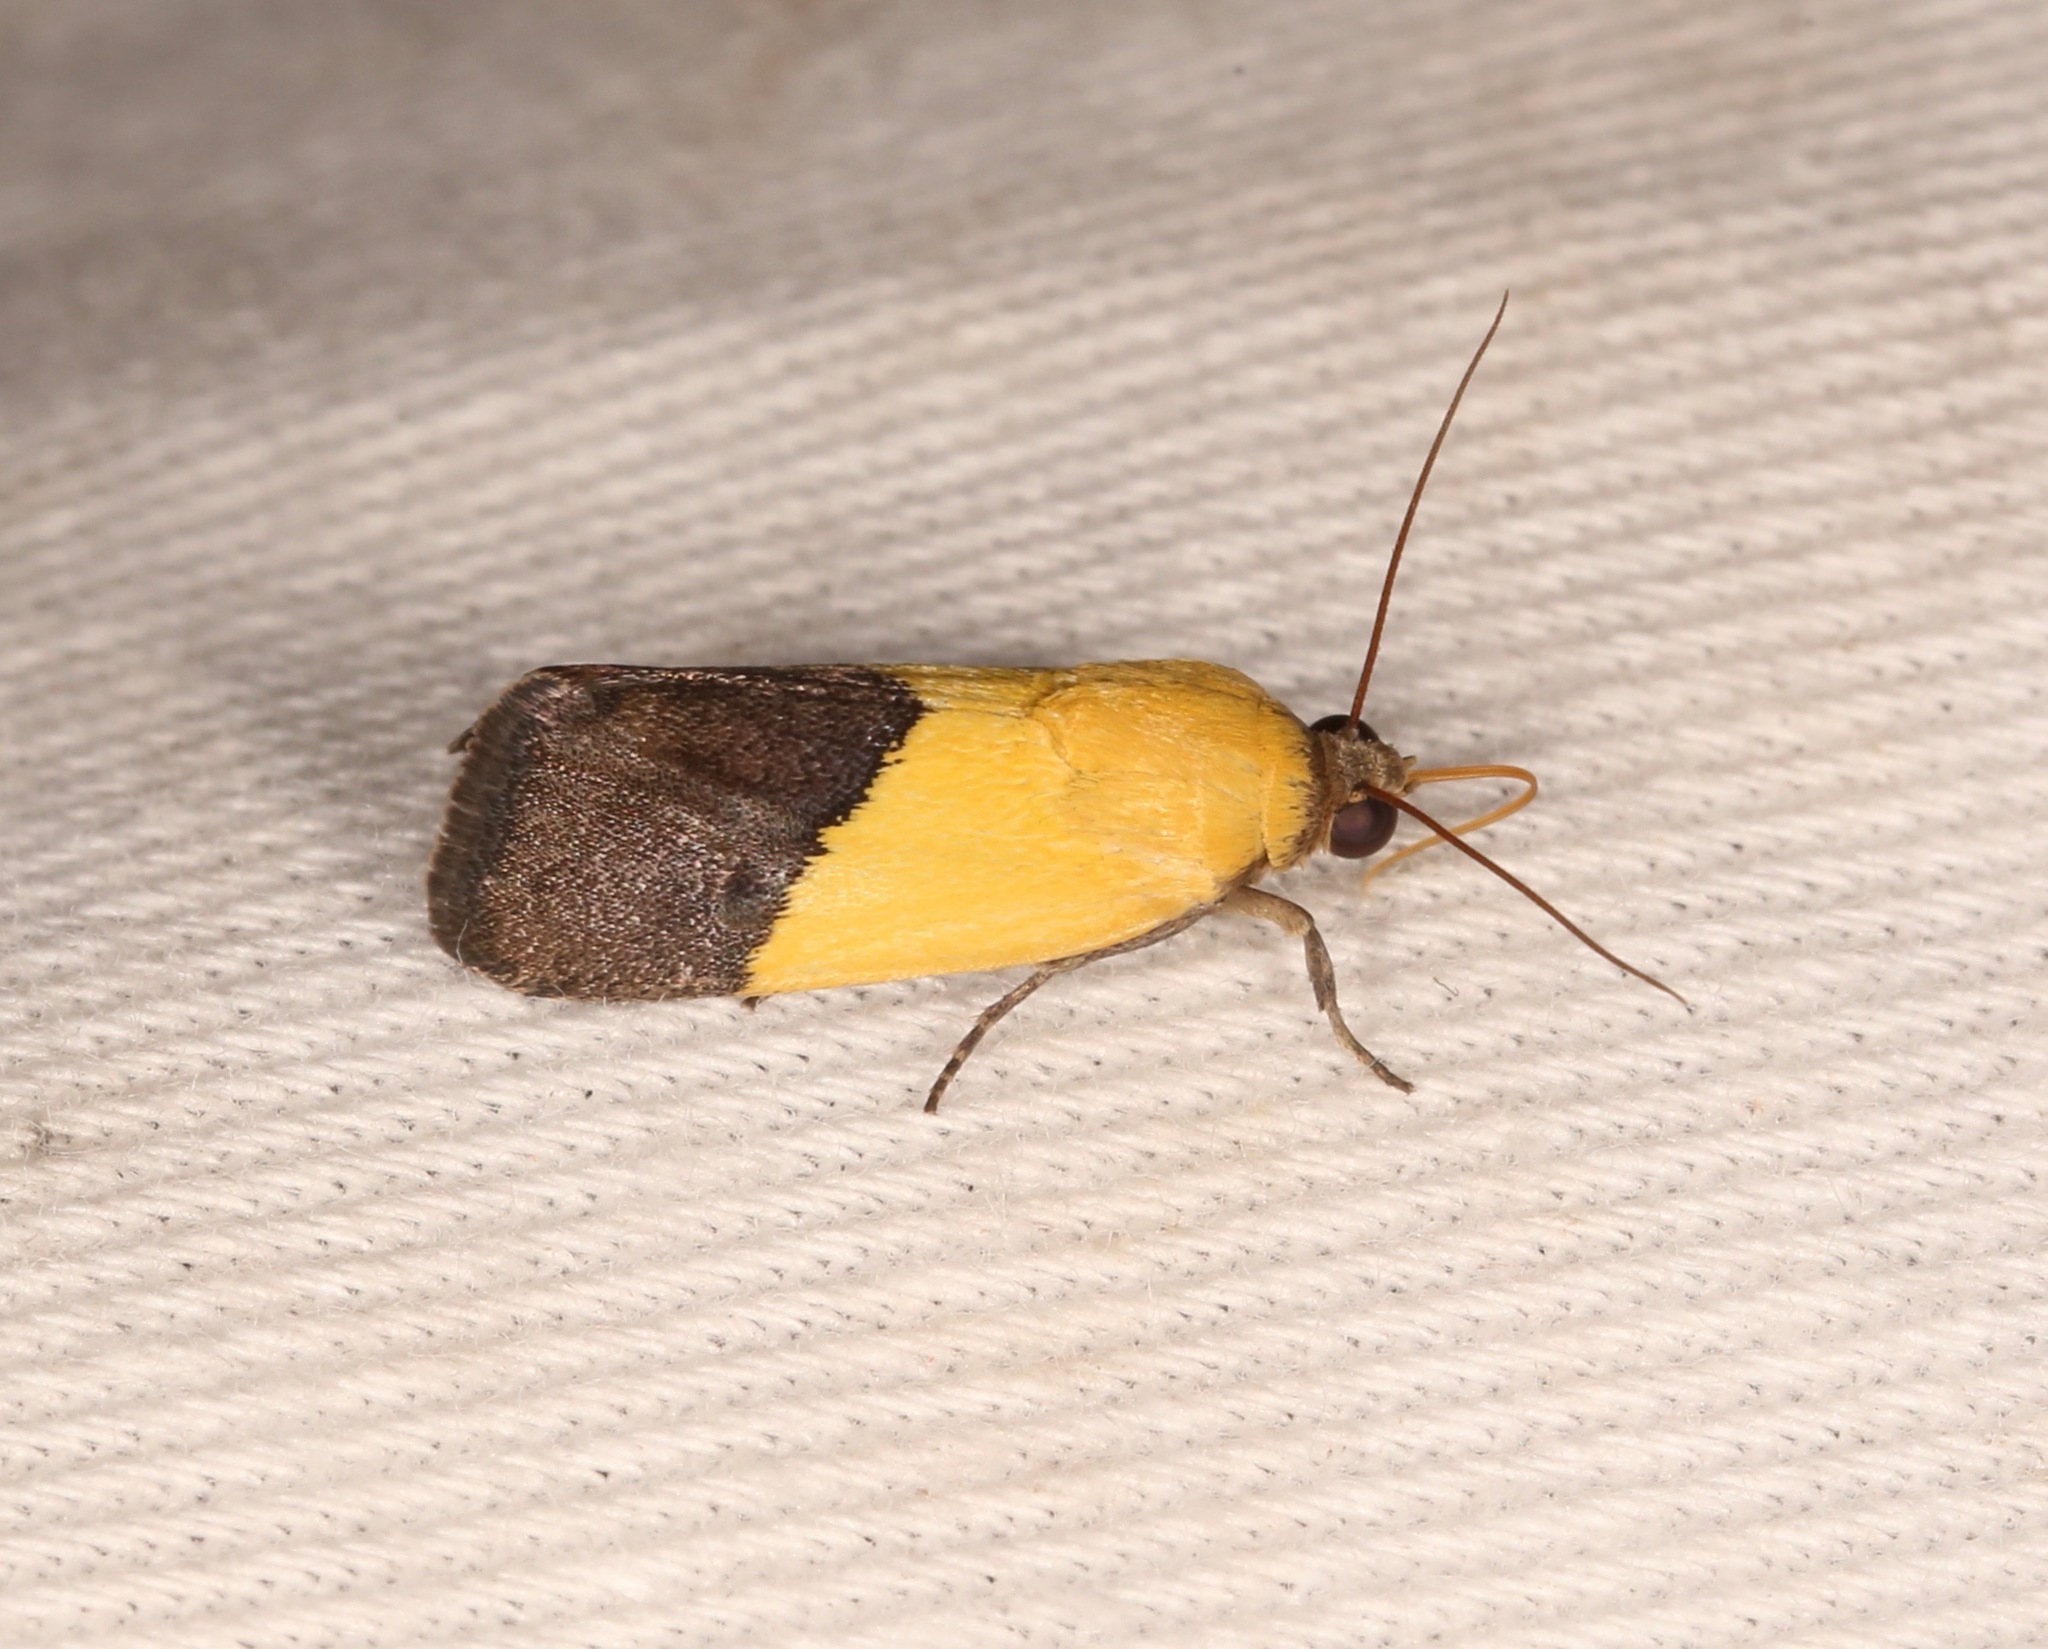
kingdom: Animalia
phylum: Arthropoda
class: Insecta
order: Lepidoptera
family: Noctuidae
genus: Acontia
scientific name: Acontia semiflava
